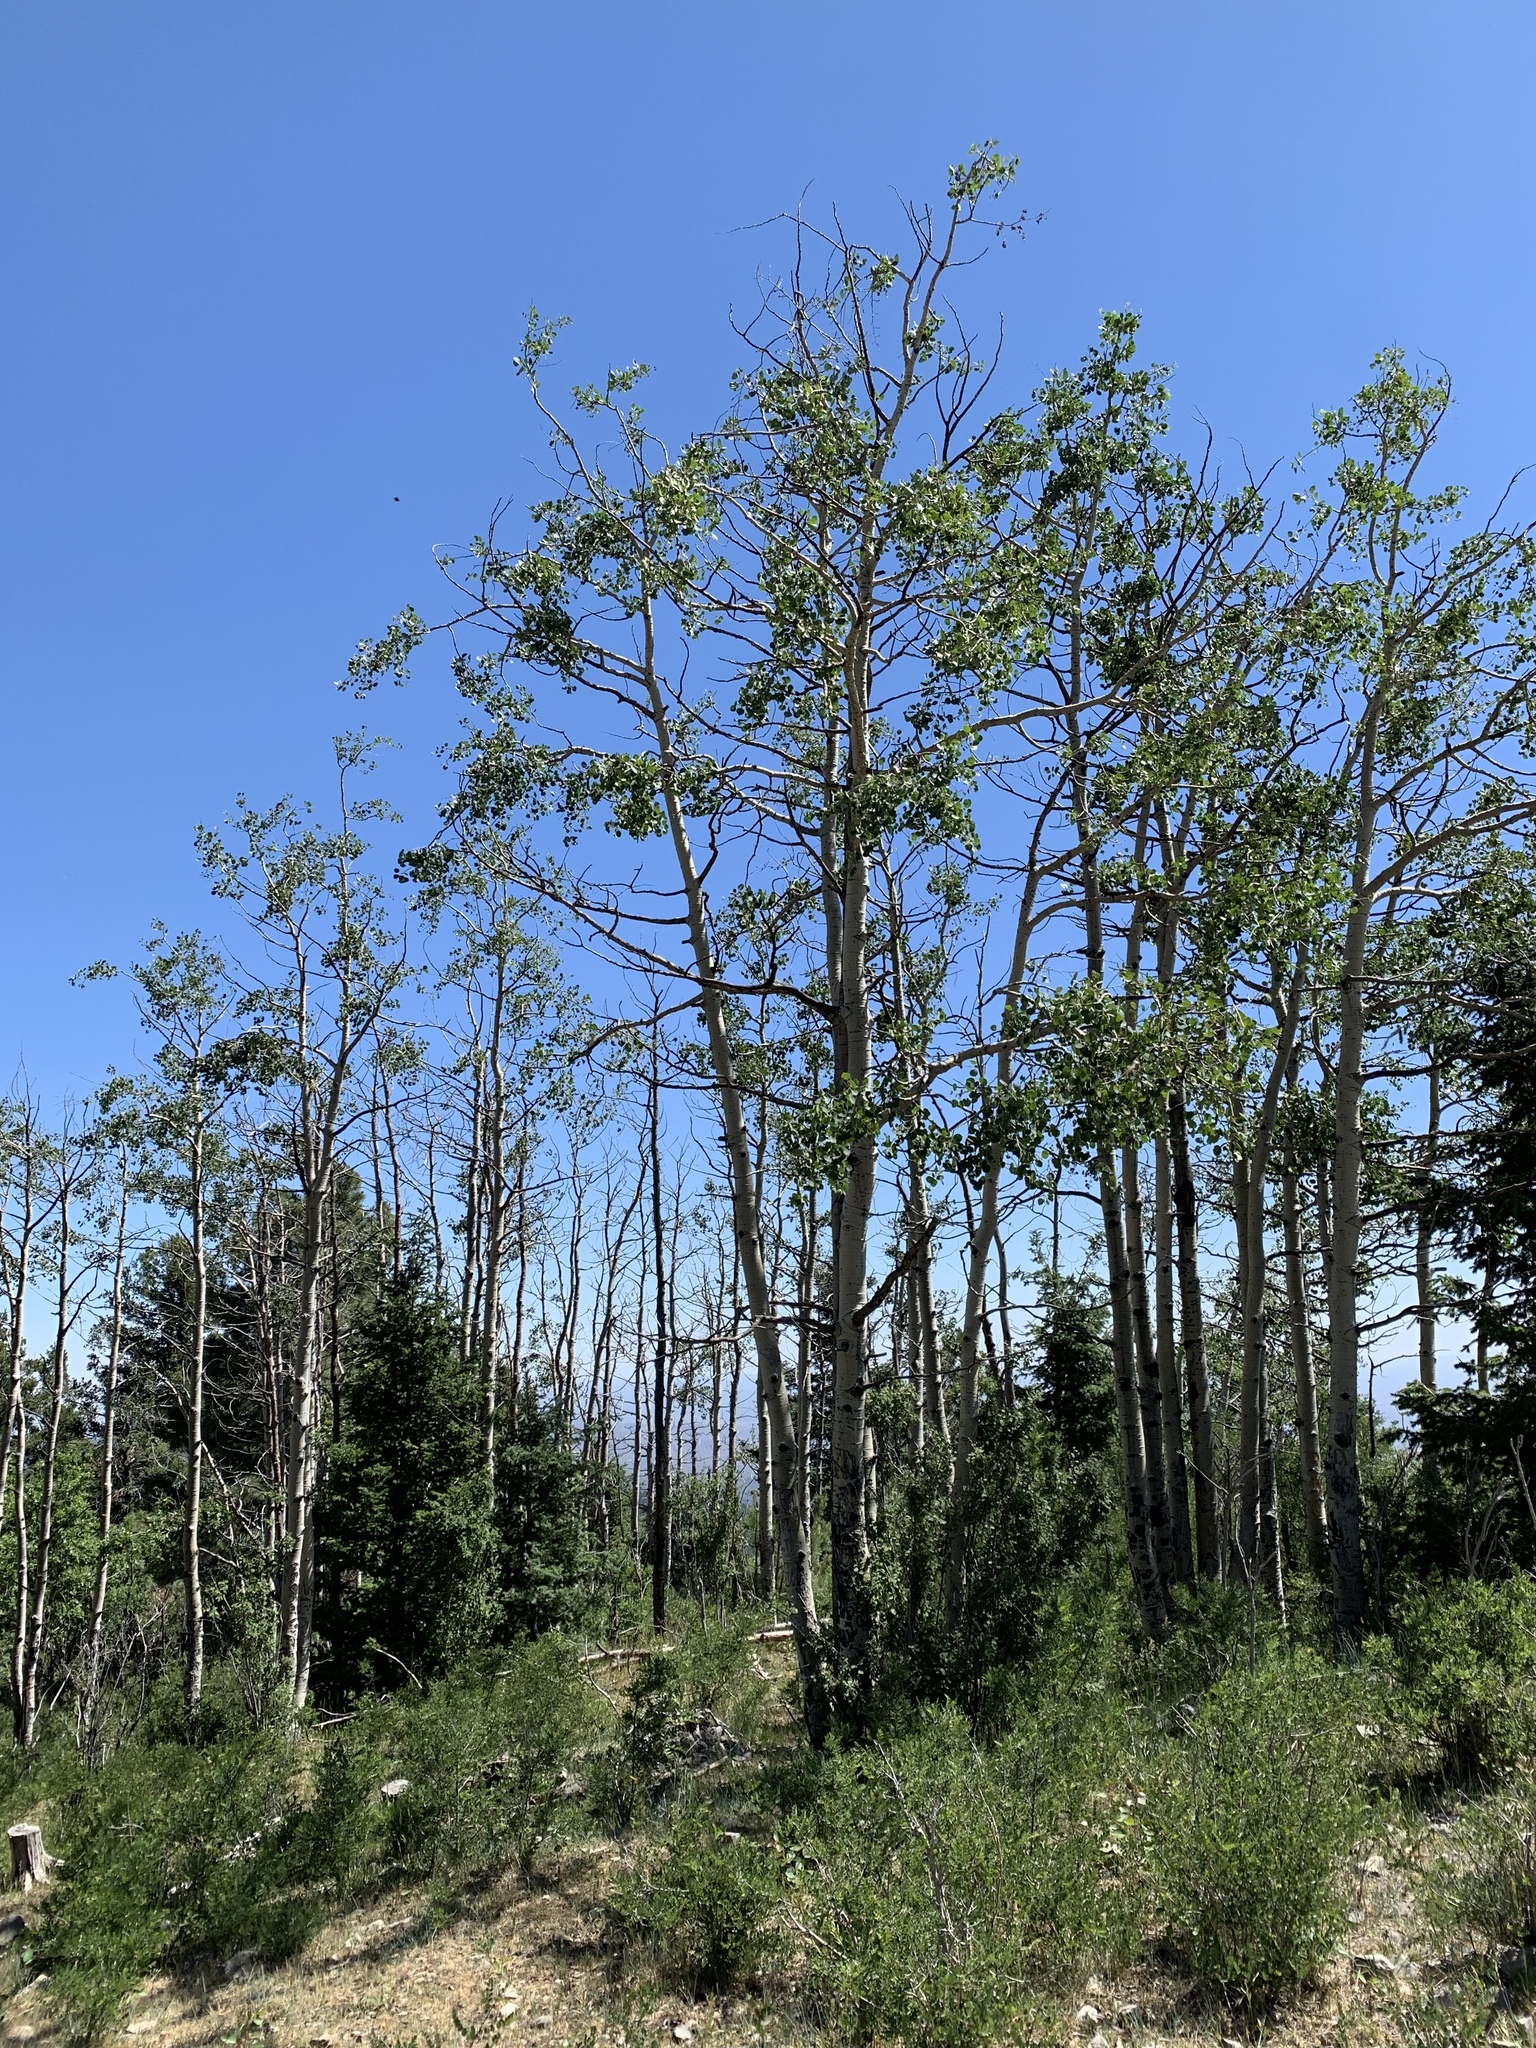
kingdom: Plantae
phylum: Tracheophyta
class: Magnoliopsida
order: Malpighiales
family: Salicaceae
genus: Populus
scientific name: Populus tremuloides
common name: Quaking aspen
